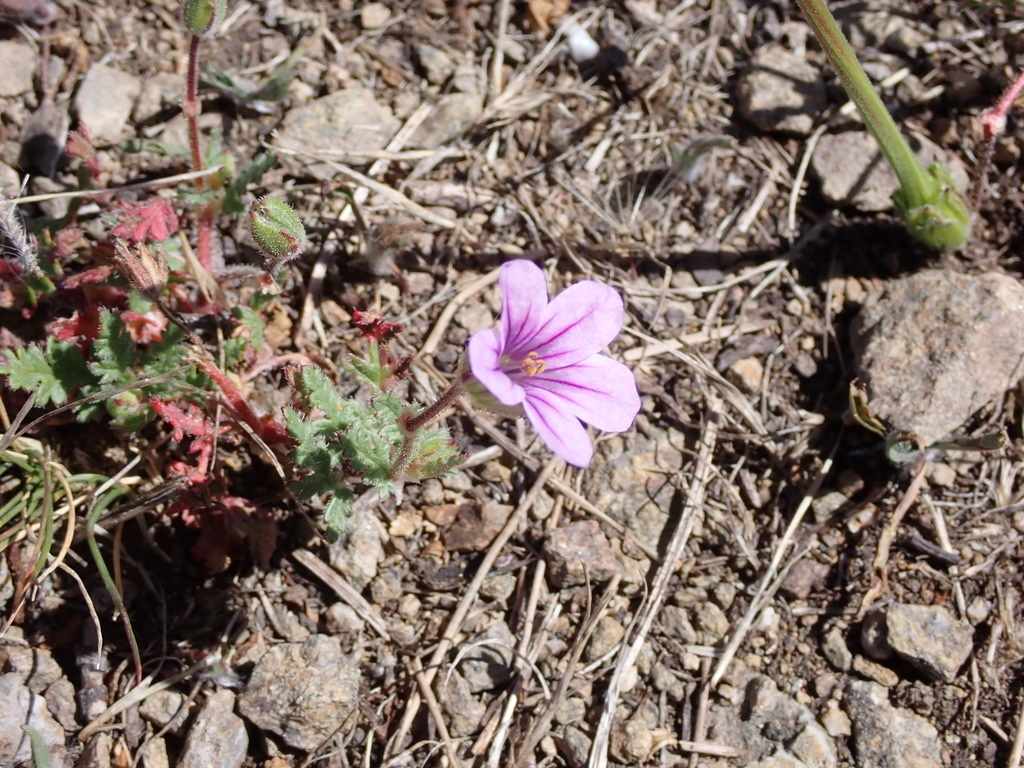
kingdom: Plantae
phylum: Tracheophyta
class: Magnoliopsida
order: Geraniales
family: Geraniaceae
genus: Erodium
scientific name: Erodium botrys
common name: Mediterranean stork's-bill
